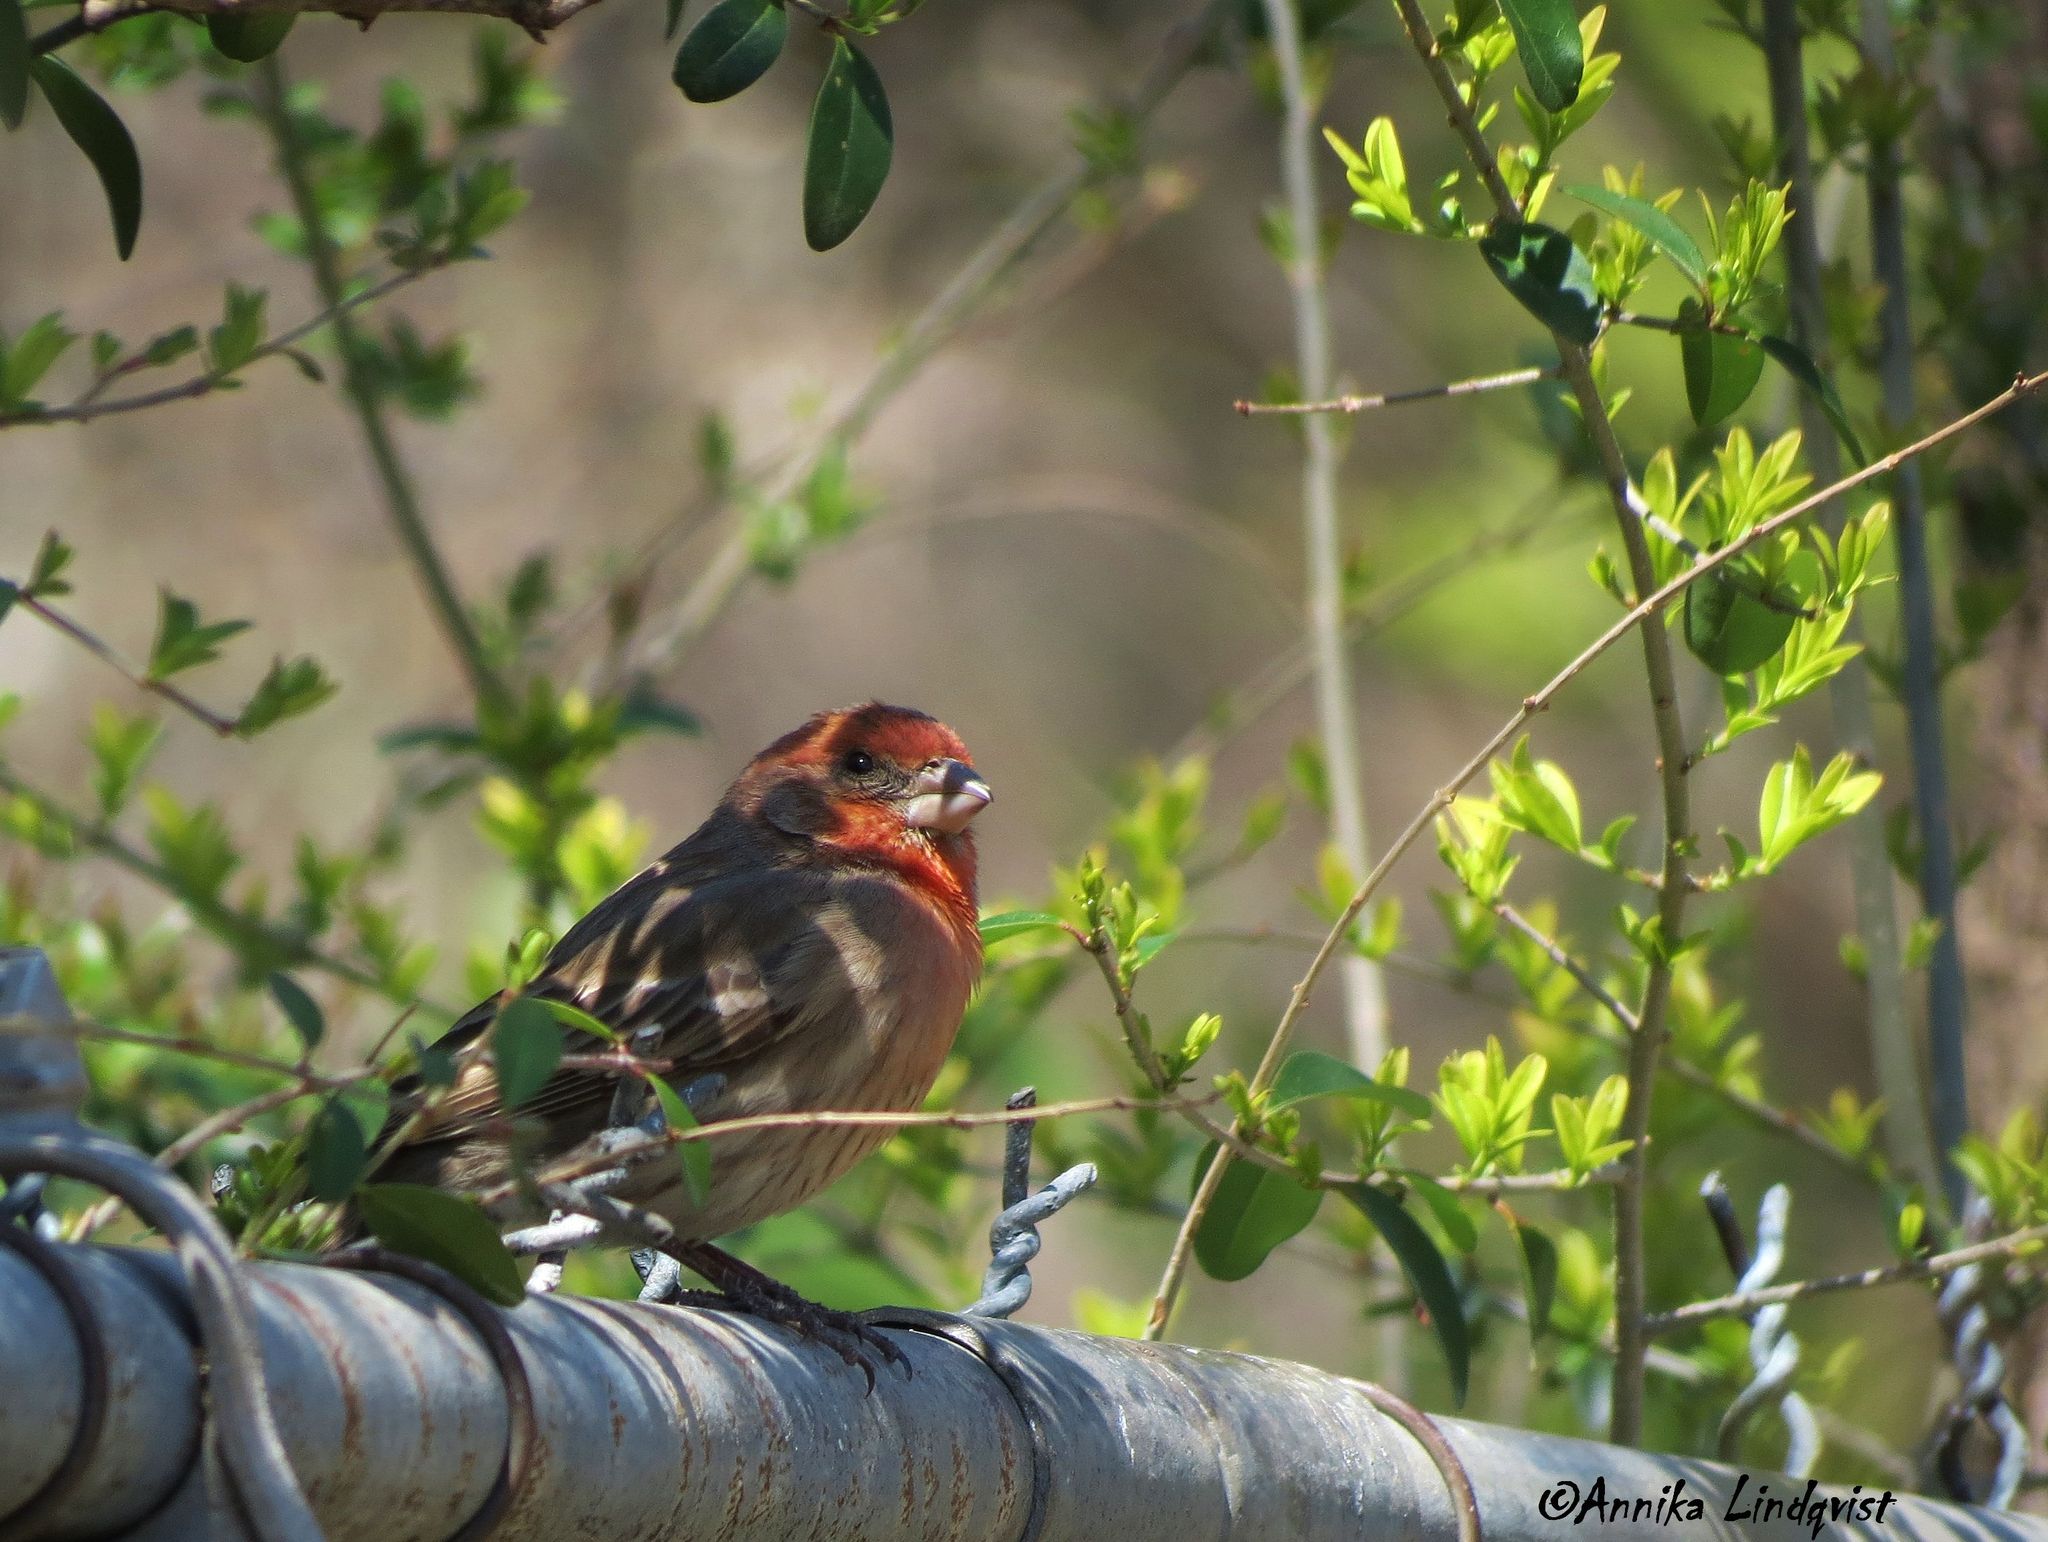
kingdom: Animalia
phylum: Chordata
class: Aves
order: Passeriformes
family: Fringillidae
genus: Haemorhous
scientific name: Haemorhous mexicanus
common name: House finch
